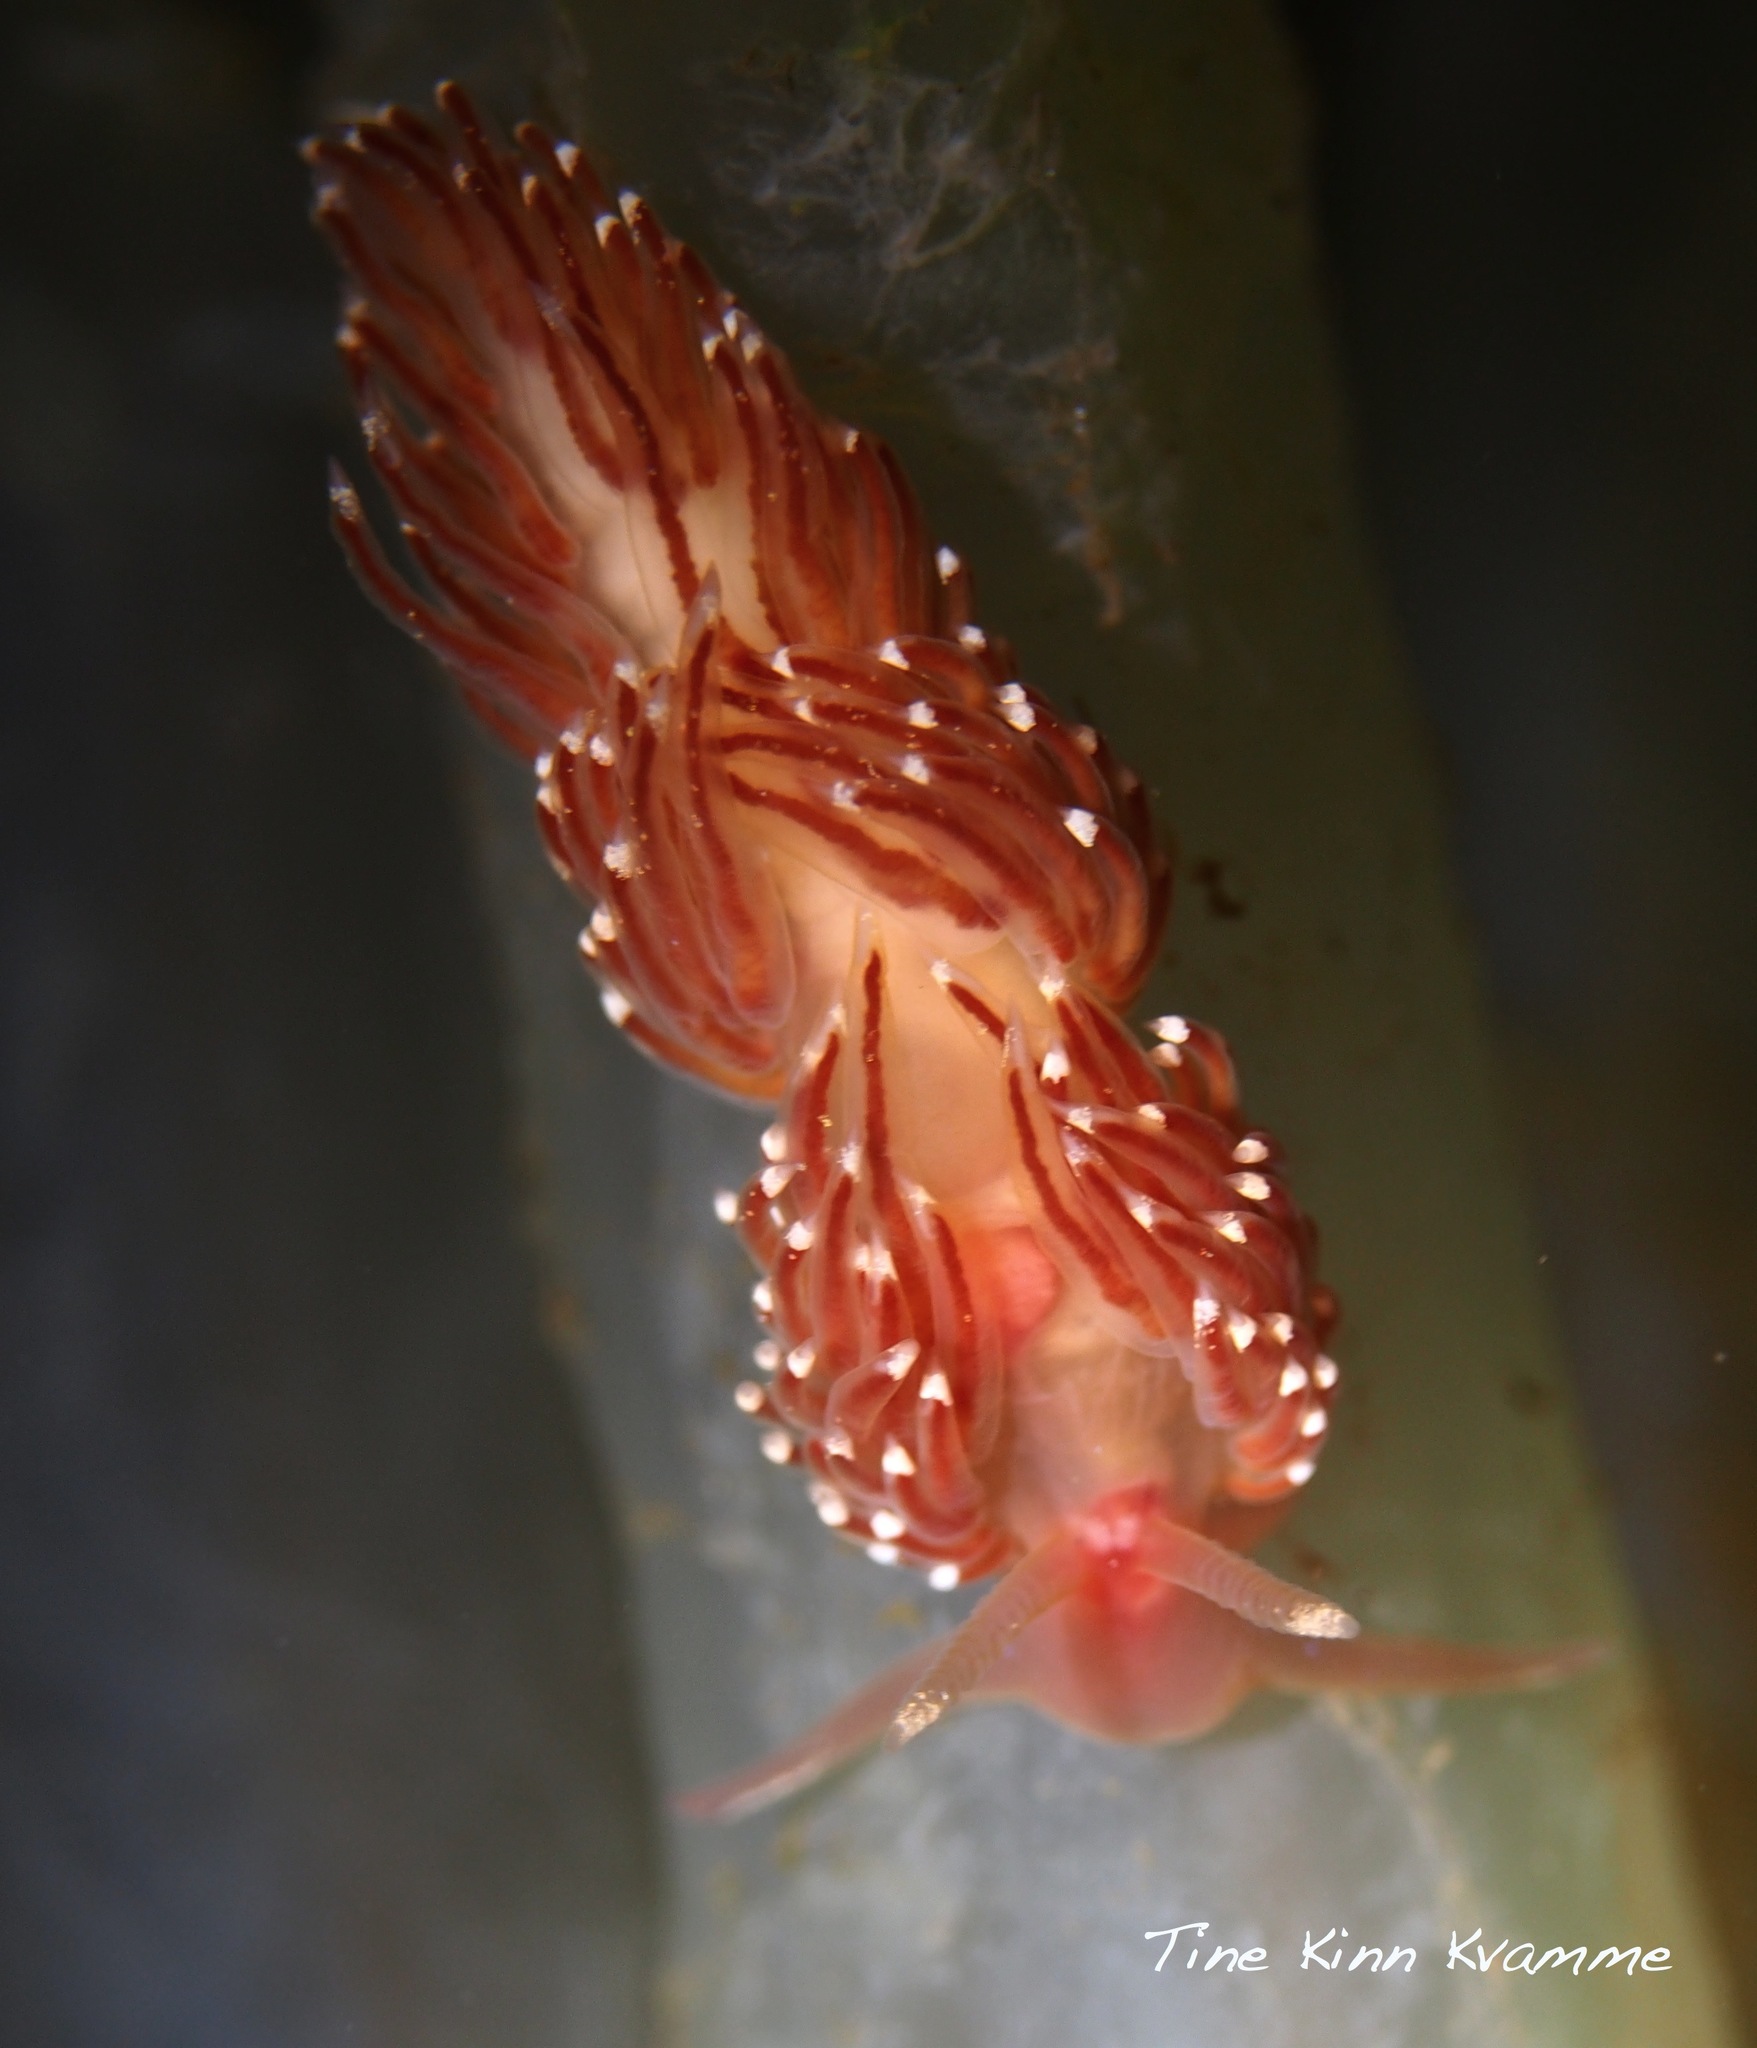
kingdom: Animalia
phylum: Mollusca
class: Gastropoda
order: Nudibranchia
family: Facelinidae
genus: Facelina
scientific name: Facelina bostoniensis
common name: Boston facelina
